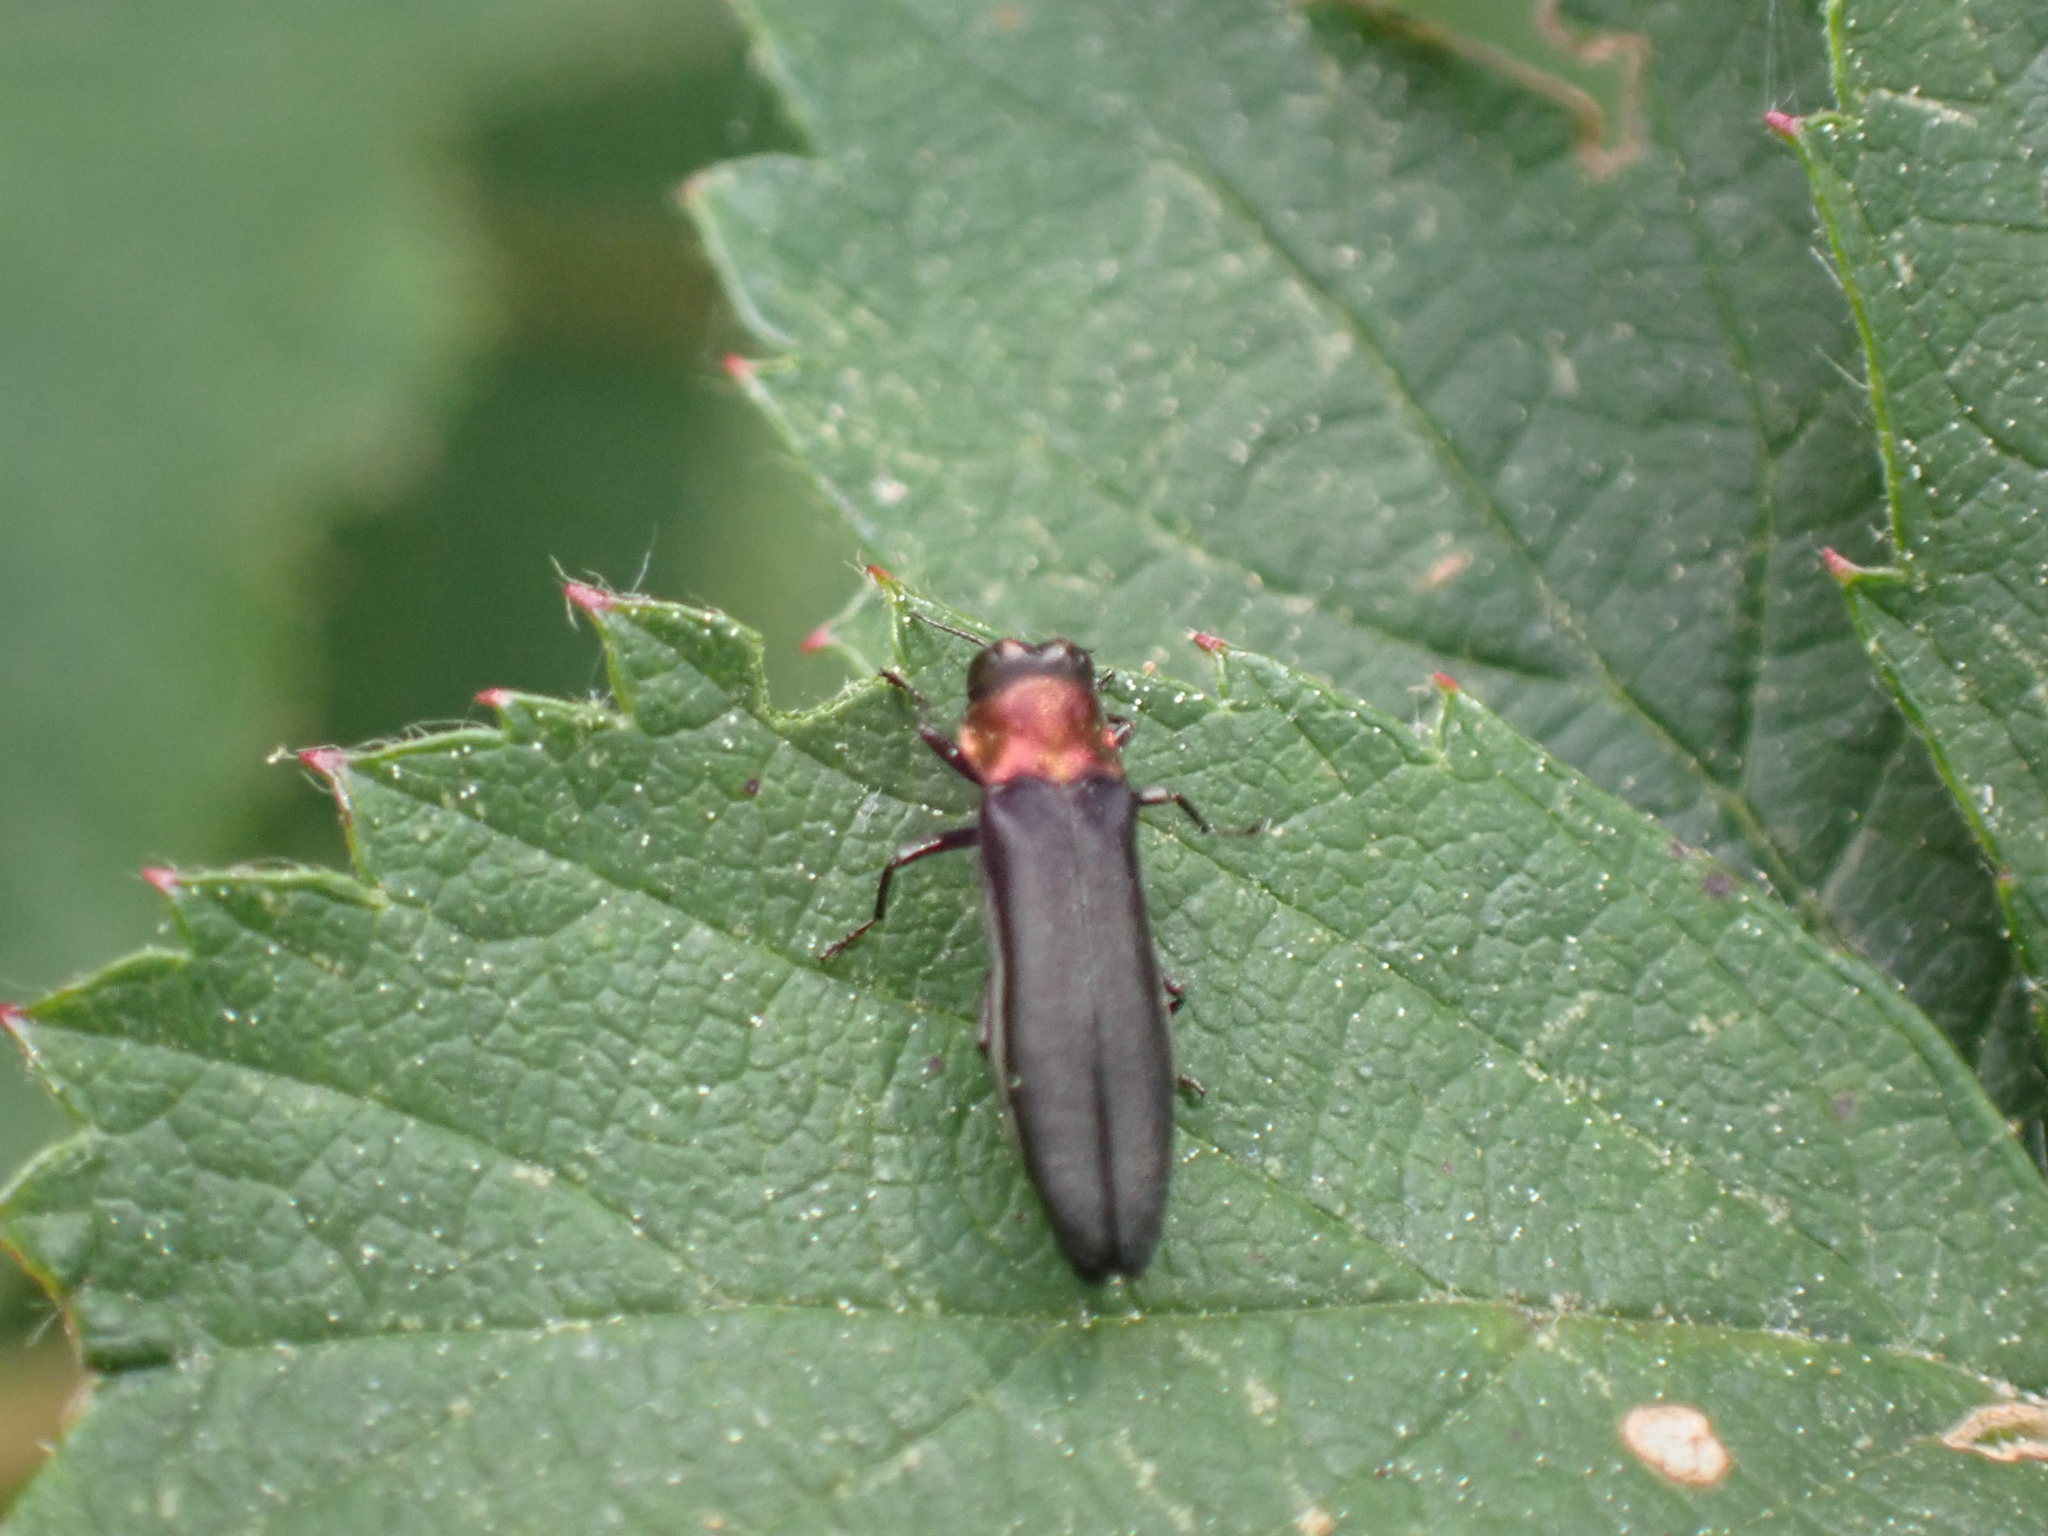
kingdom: Animalia
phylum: Arthropoda
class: Insecta
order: Coleoptera
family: Buprestidae
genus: Agrilus
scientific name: Agrilus ruficollis
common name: Red-necked cane borer beetle
